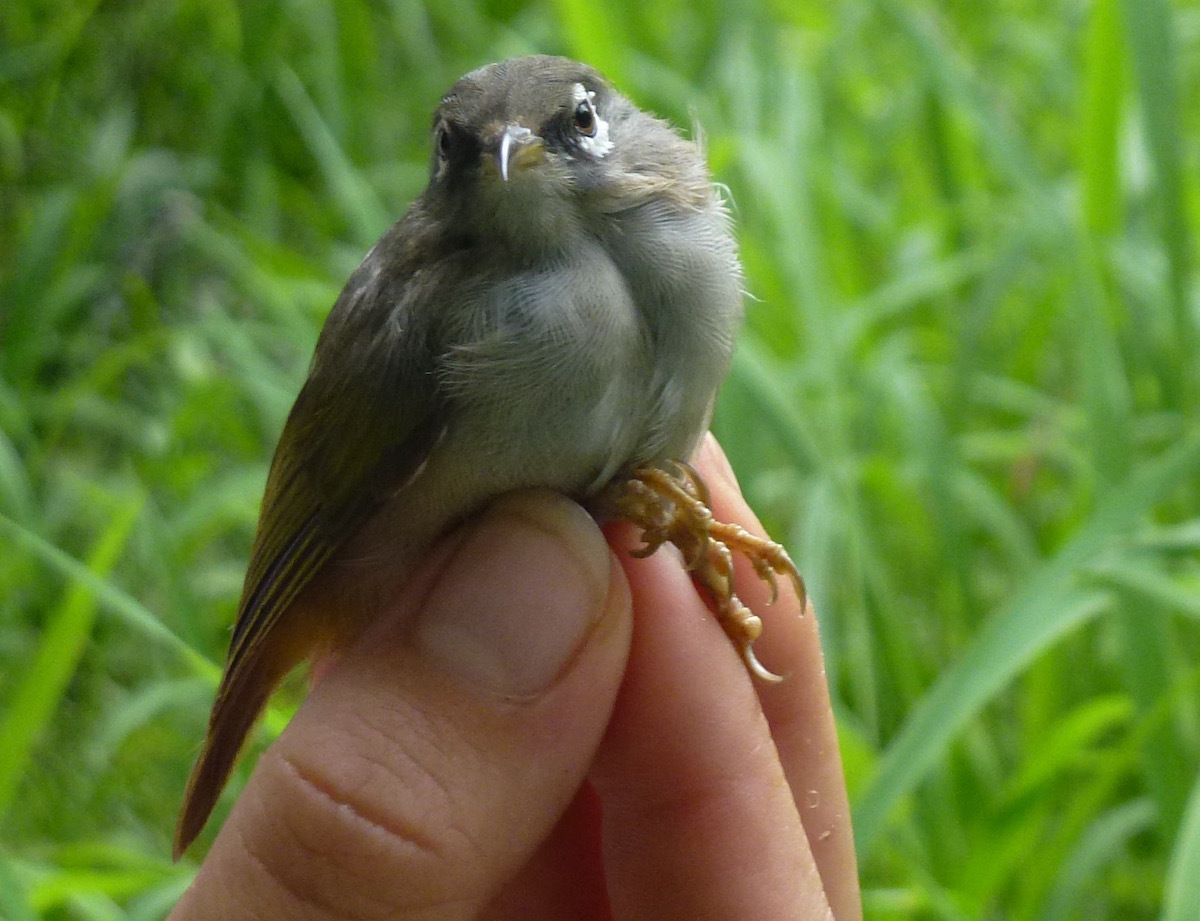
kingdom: Animalia
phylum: Chordata
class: Aves
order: Passeriformes
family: Zosteropidae
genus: Zosterops
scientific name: Zosterops chloronothos
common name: Mauritius olive white-eye
